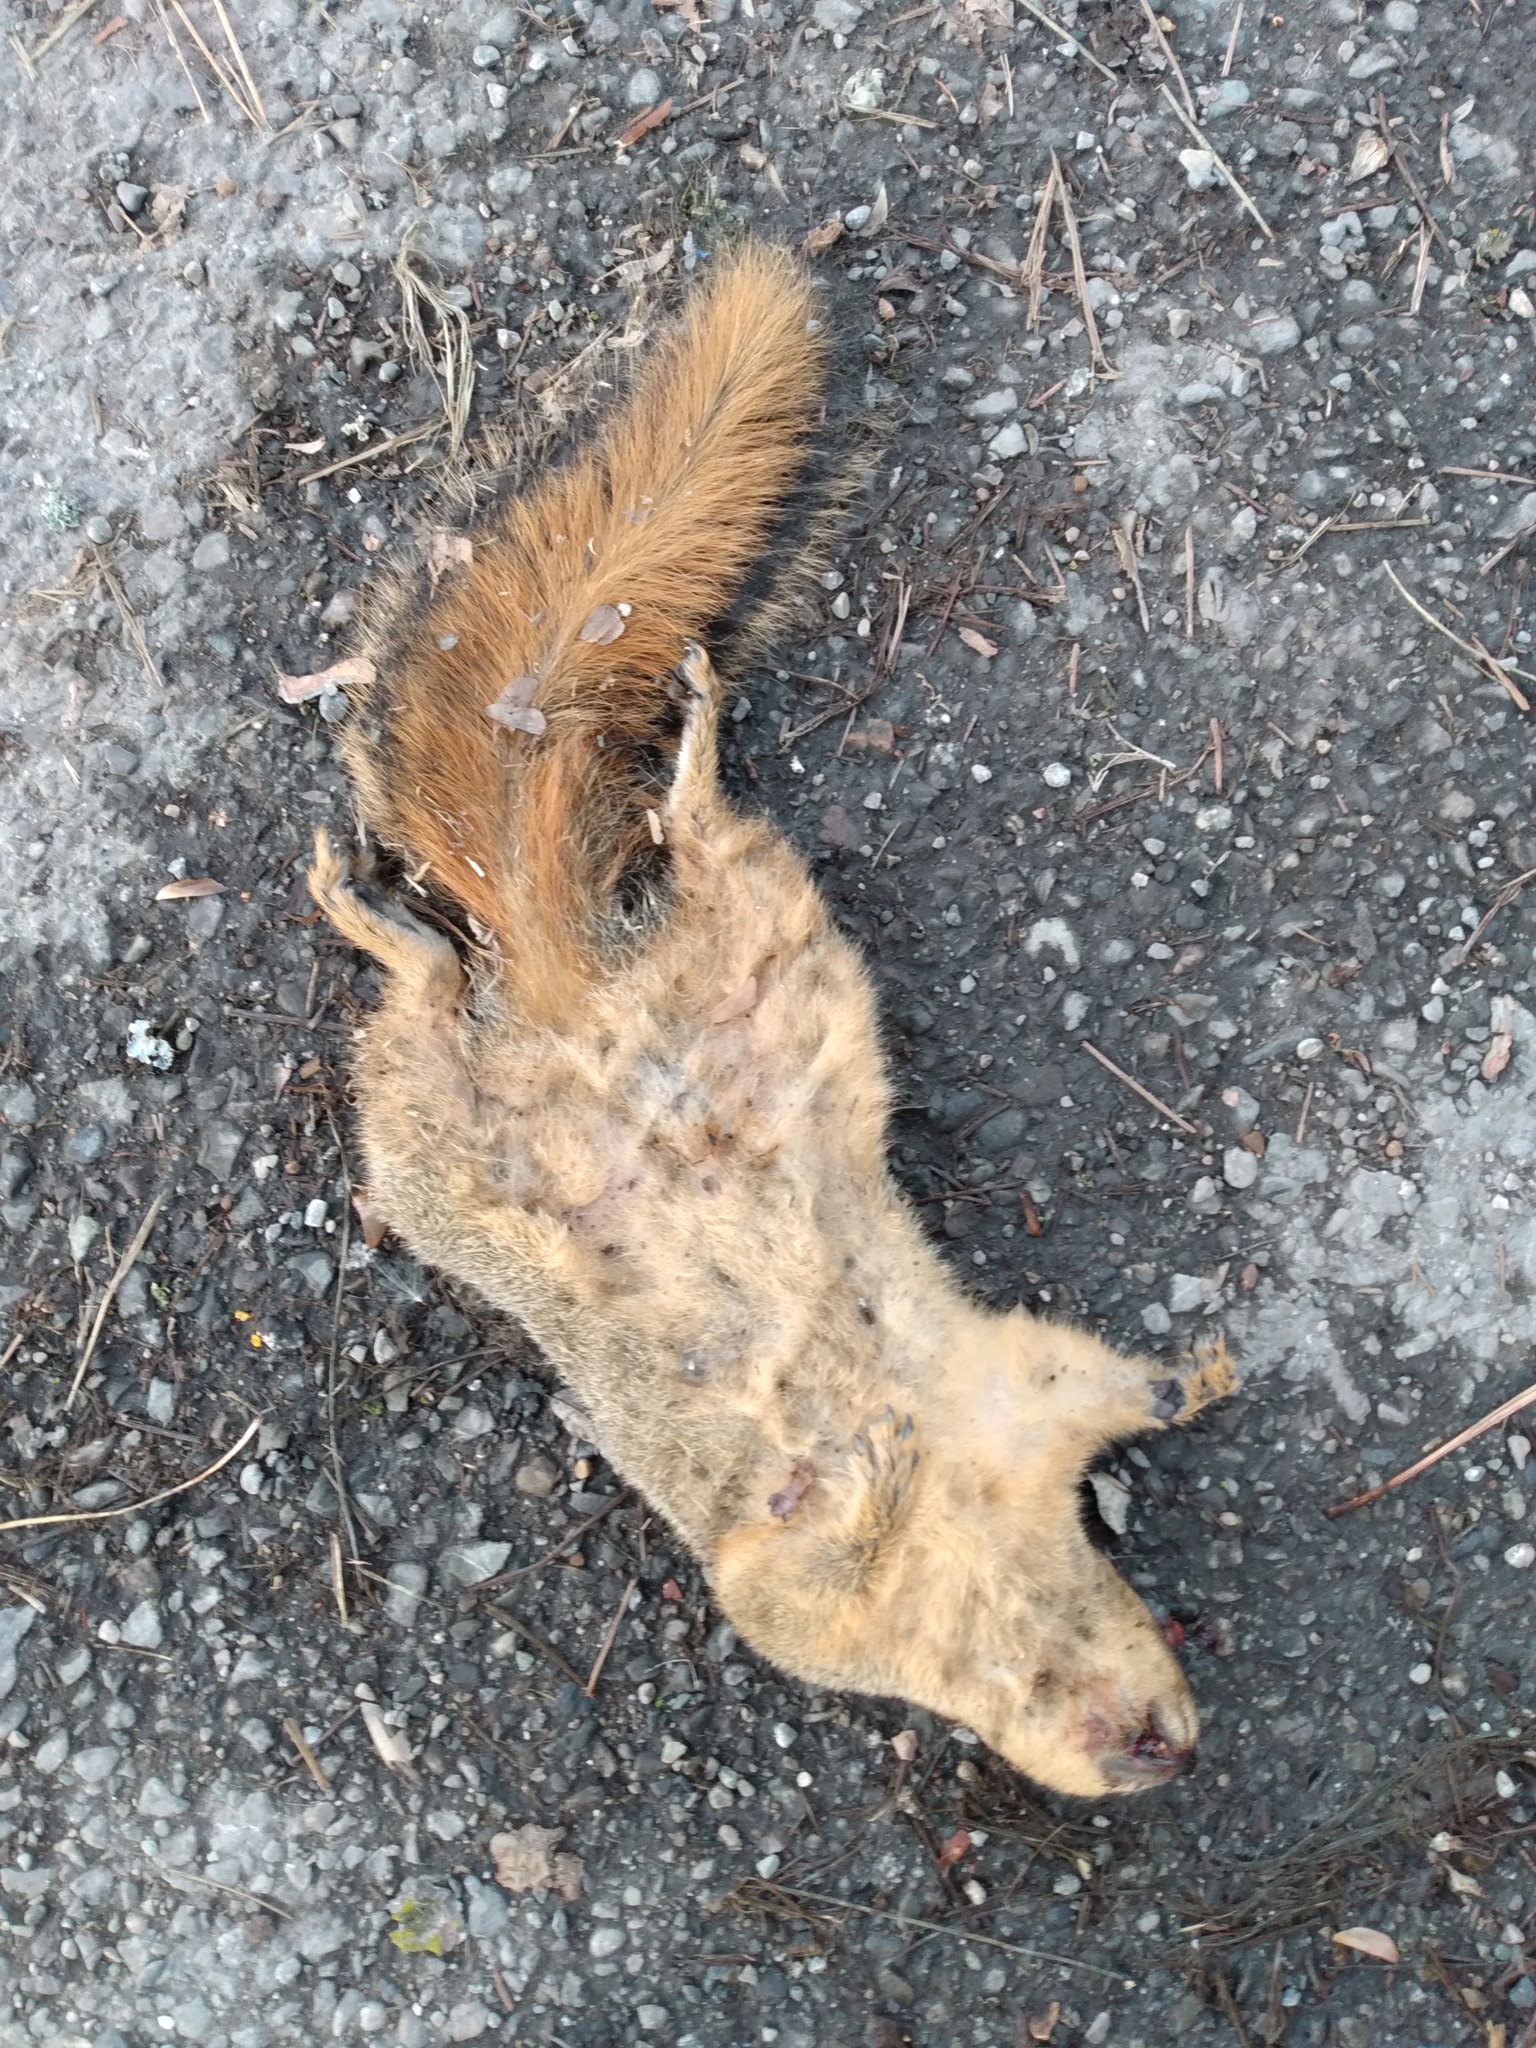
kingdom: Animalia
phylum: Chordata
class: Mammalia
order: Rodentia
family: Sciuridae
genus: Sciurus
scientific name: Sciurus niger
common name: Fox squirrel
